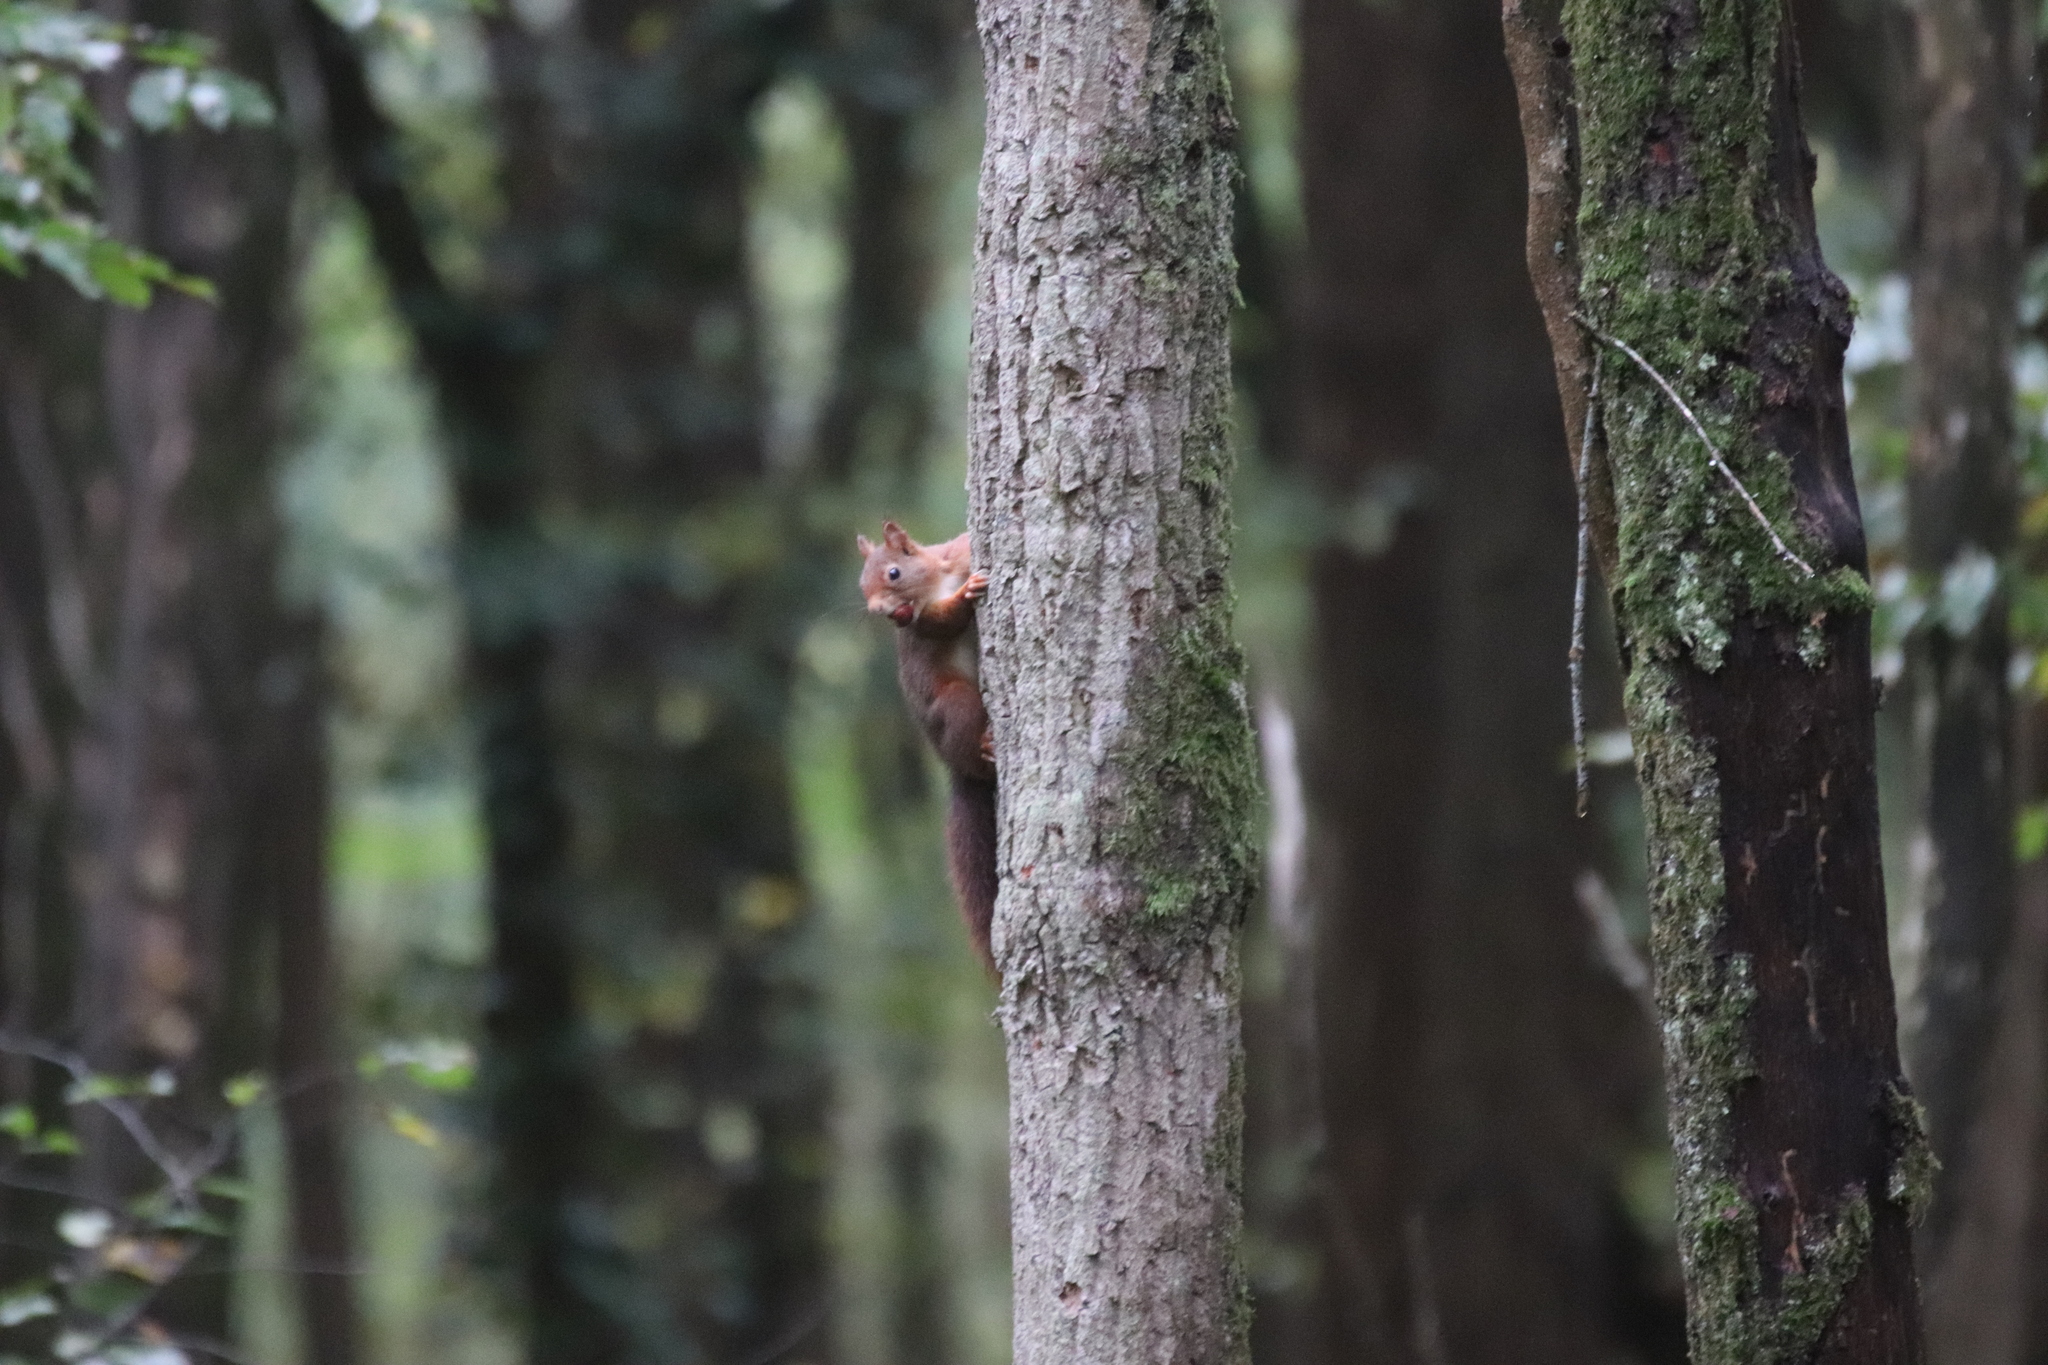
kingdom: Animalia
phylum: Chordata
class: Mammalia
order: Rodentia
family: Sciuridae
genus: Sciurus
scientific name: Sciurus vulgaris
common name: Eurasian red squirrel
